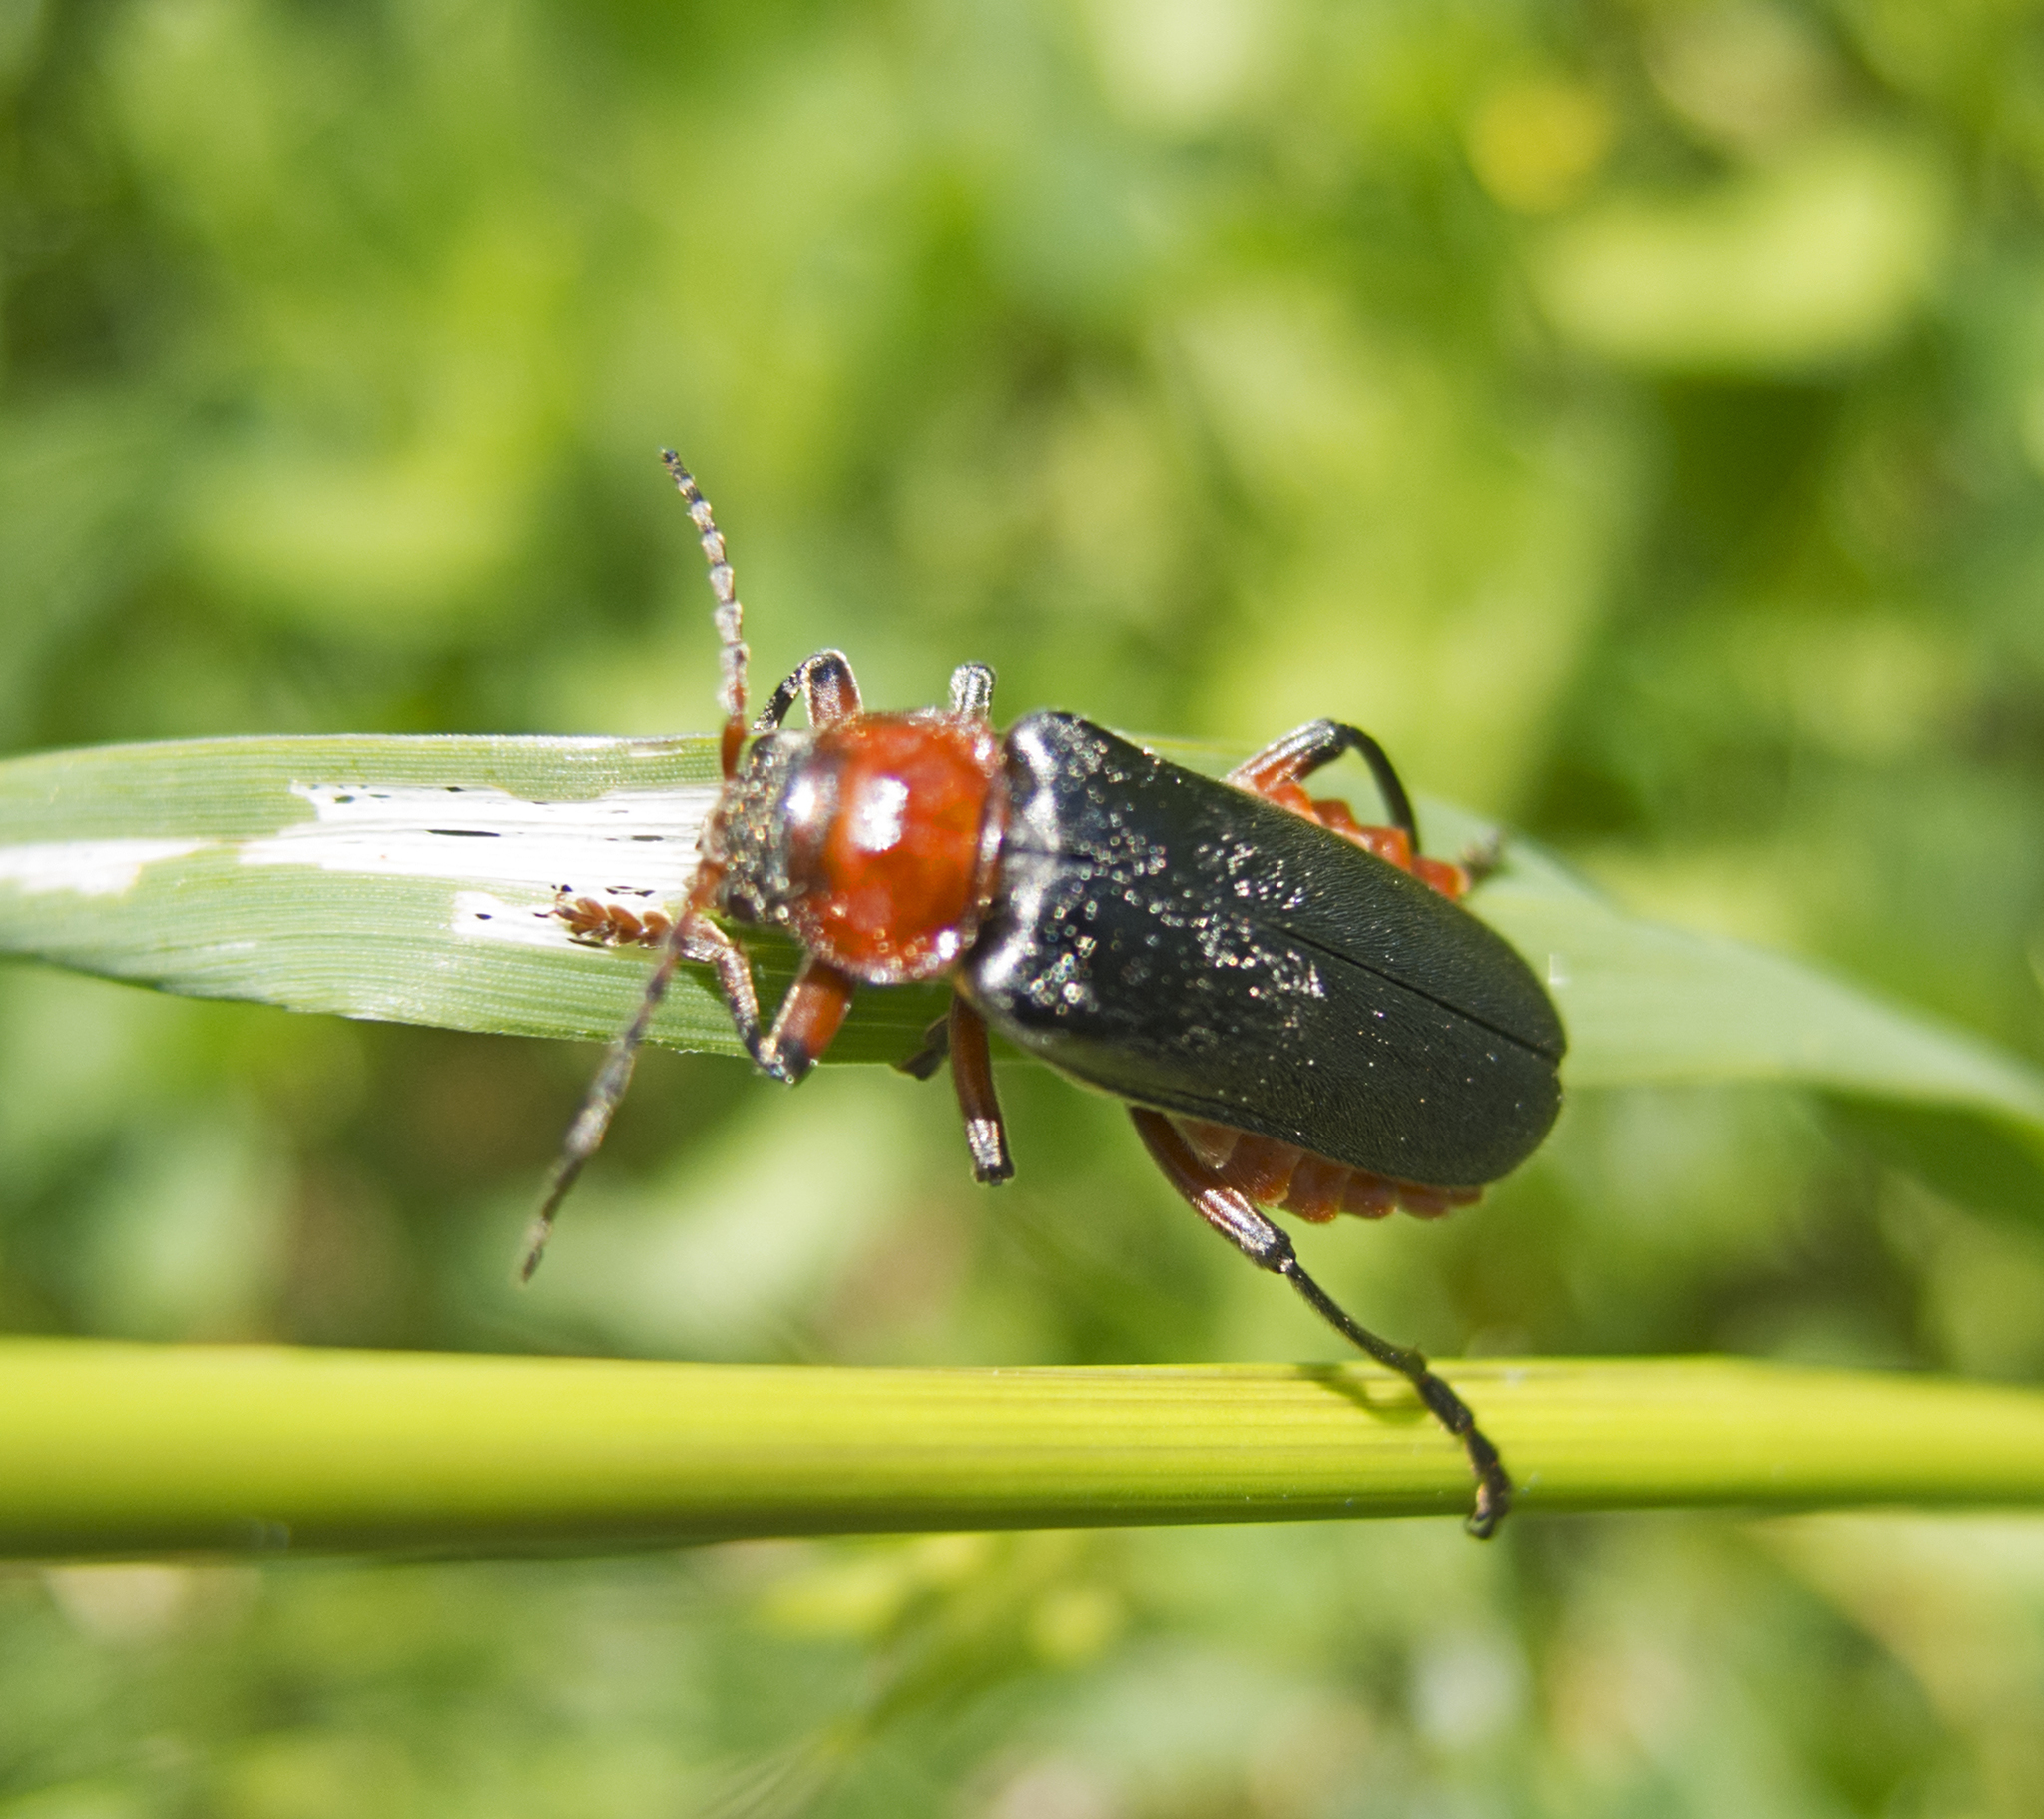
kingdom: Animalia
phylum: Arthropoda
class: Insecta
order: Coleoptera
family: Cantharidae
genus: Cantharis
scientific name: Cantharis rustica
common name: Soldier beetle
